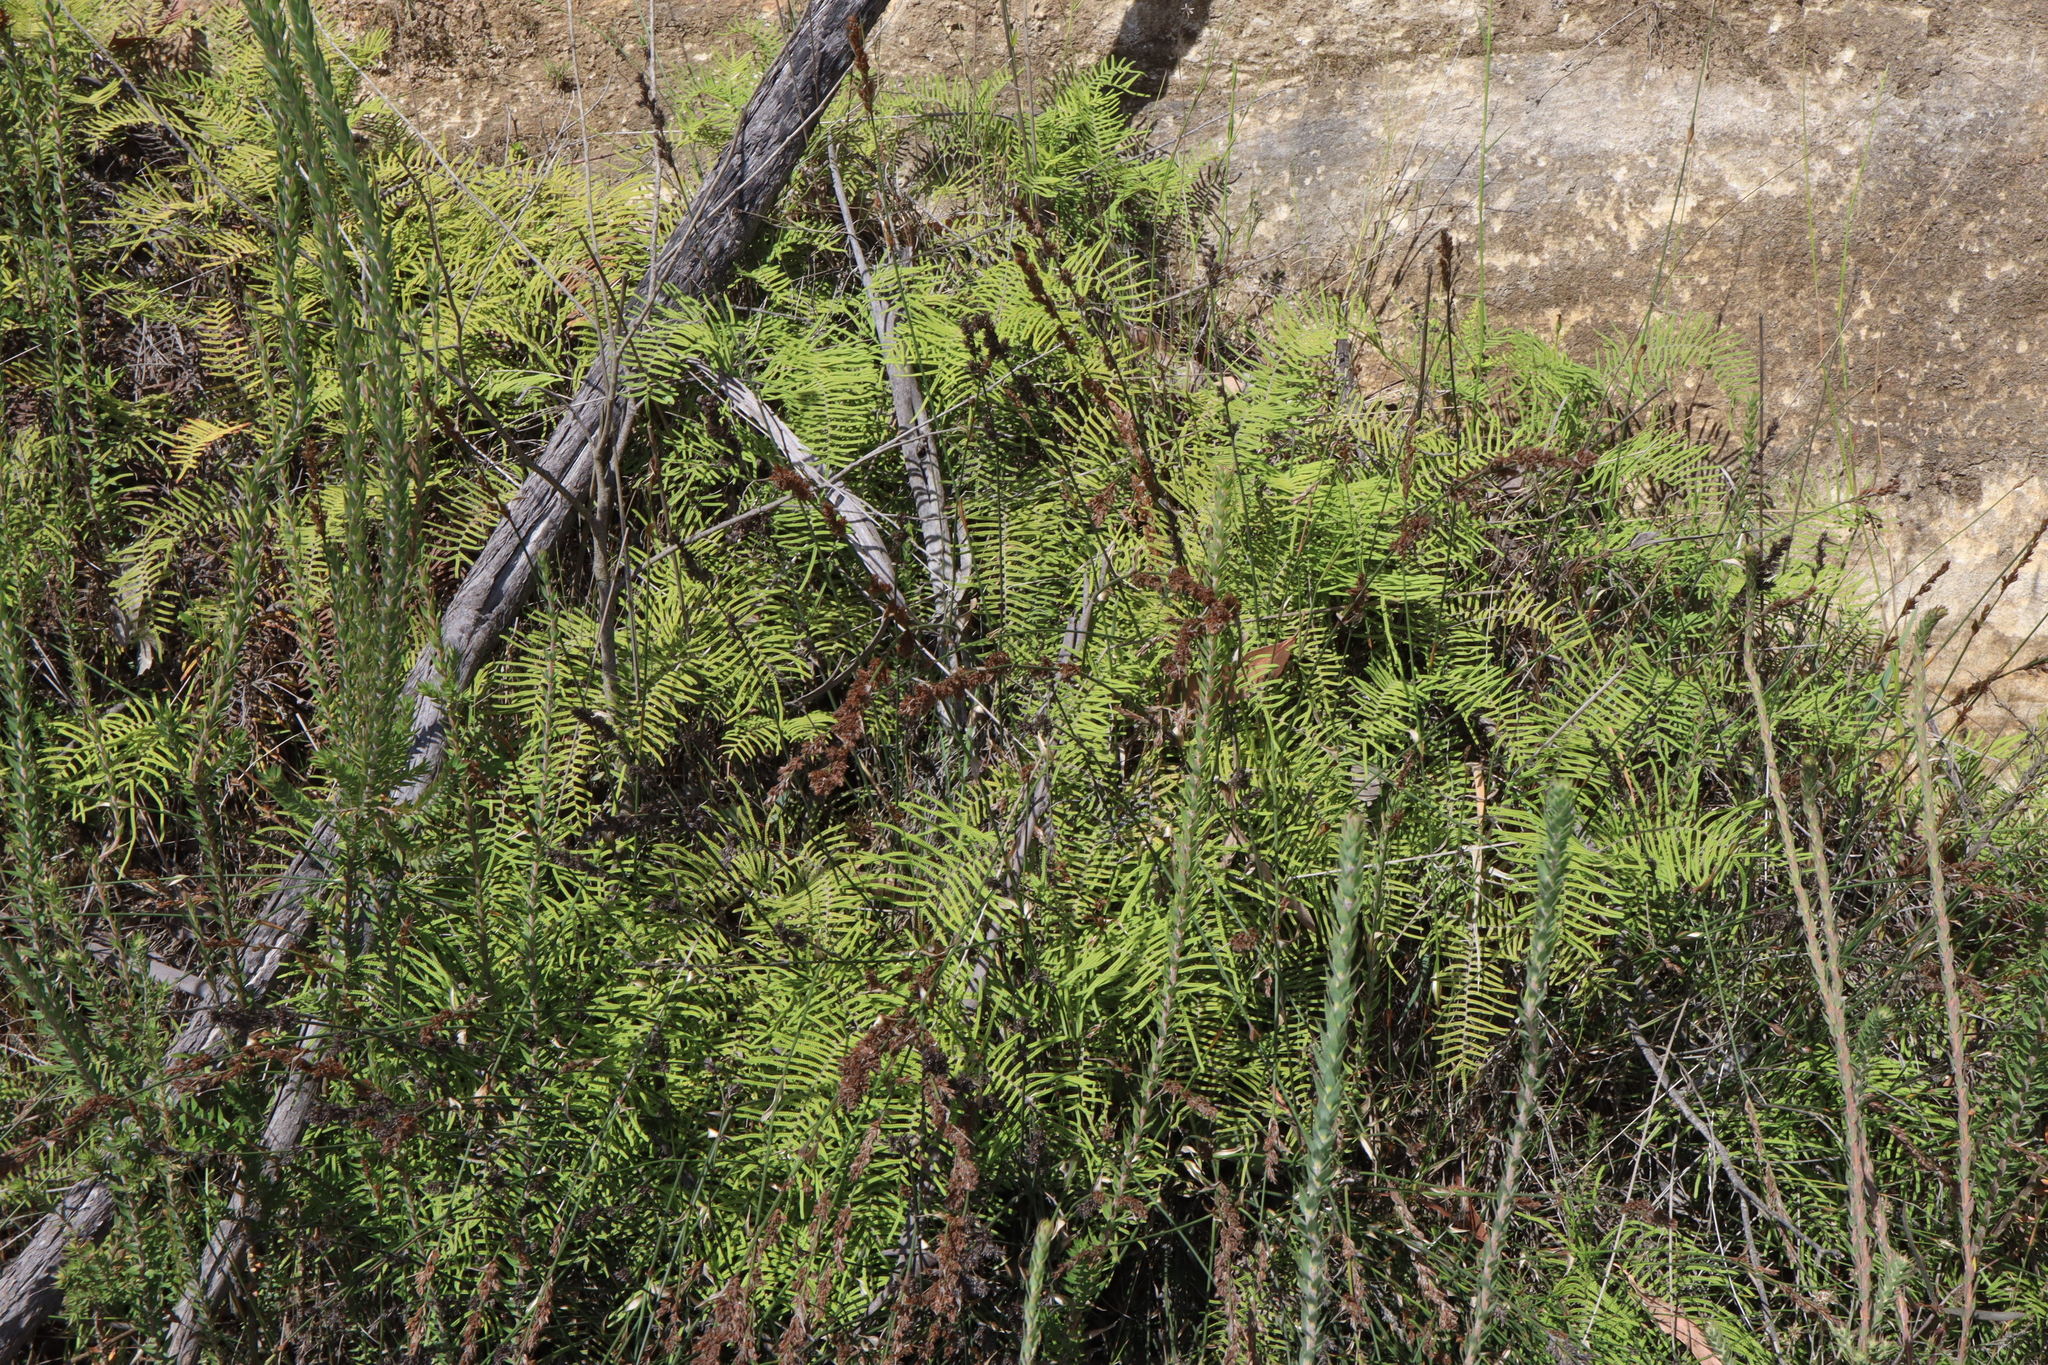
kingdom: Plantae
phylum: Tracheophyta
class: Polypodiopsida
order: Gleicheniales
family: Gleicheniaceae
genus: Gleichenia
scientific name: Gleichenia dicarpa
